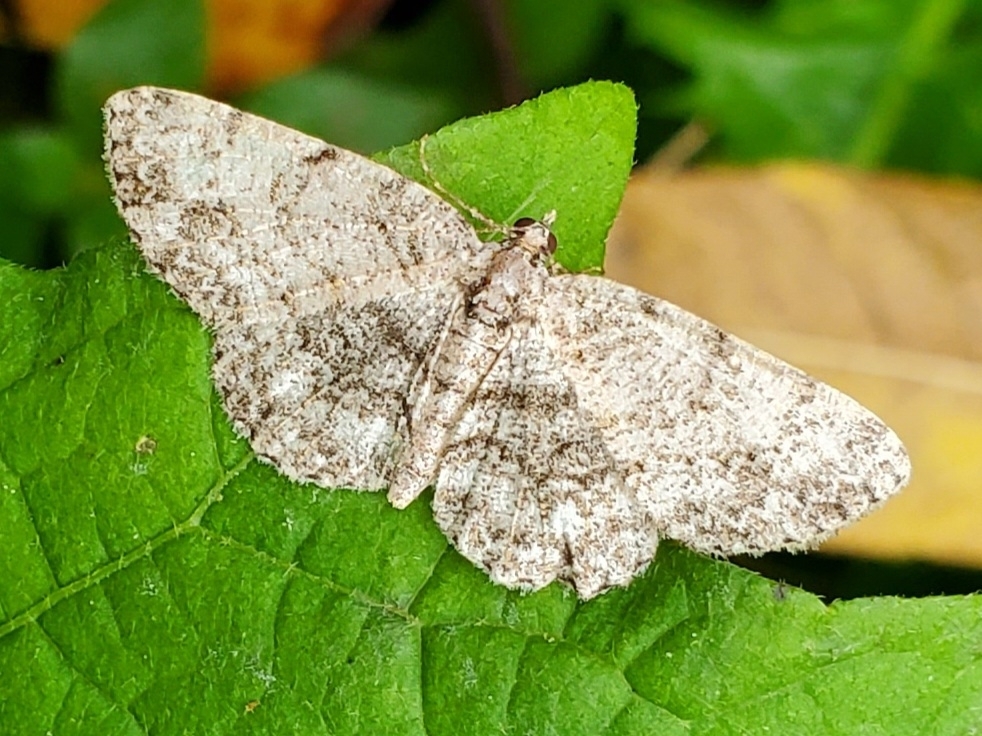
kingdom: Animalia
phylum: Arthropoda
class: Insecta
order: Lepidoptera
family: Geometridae
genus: Protoboarmia
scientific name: Protoboarmia porcelaria
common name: Porcelain gray
